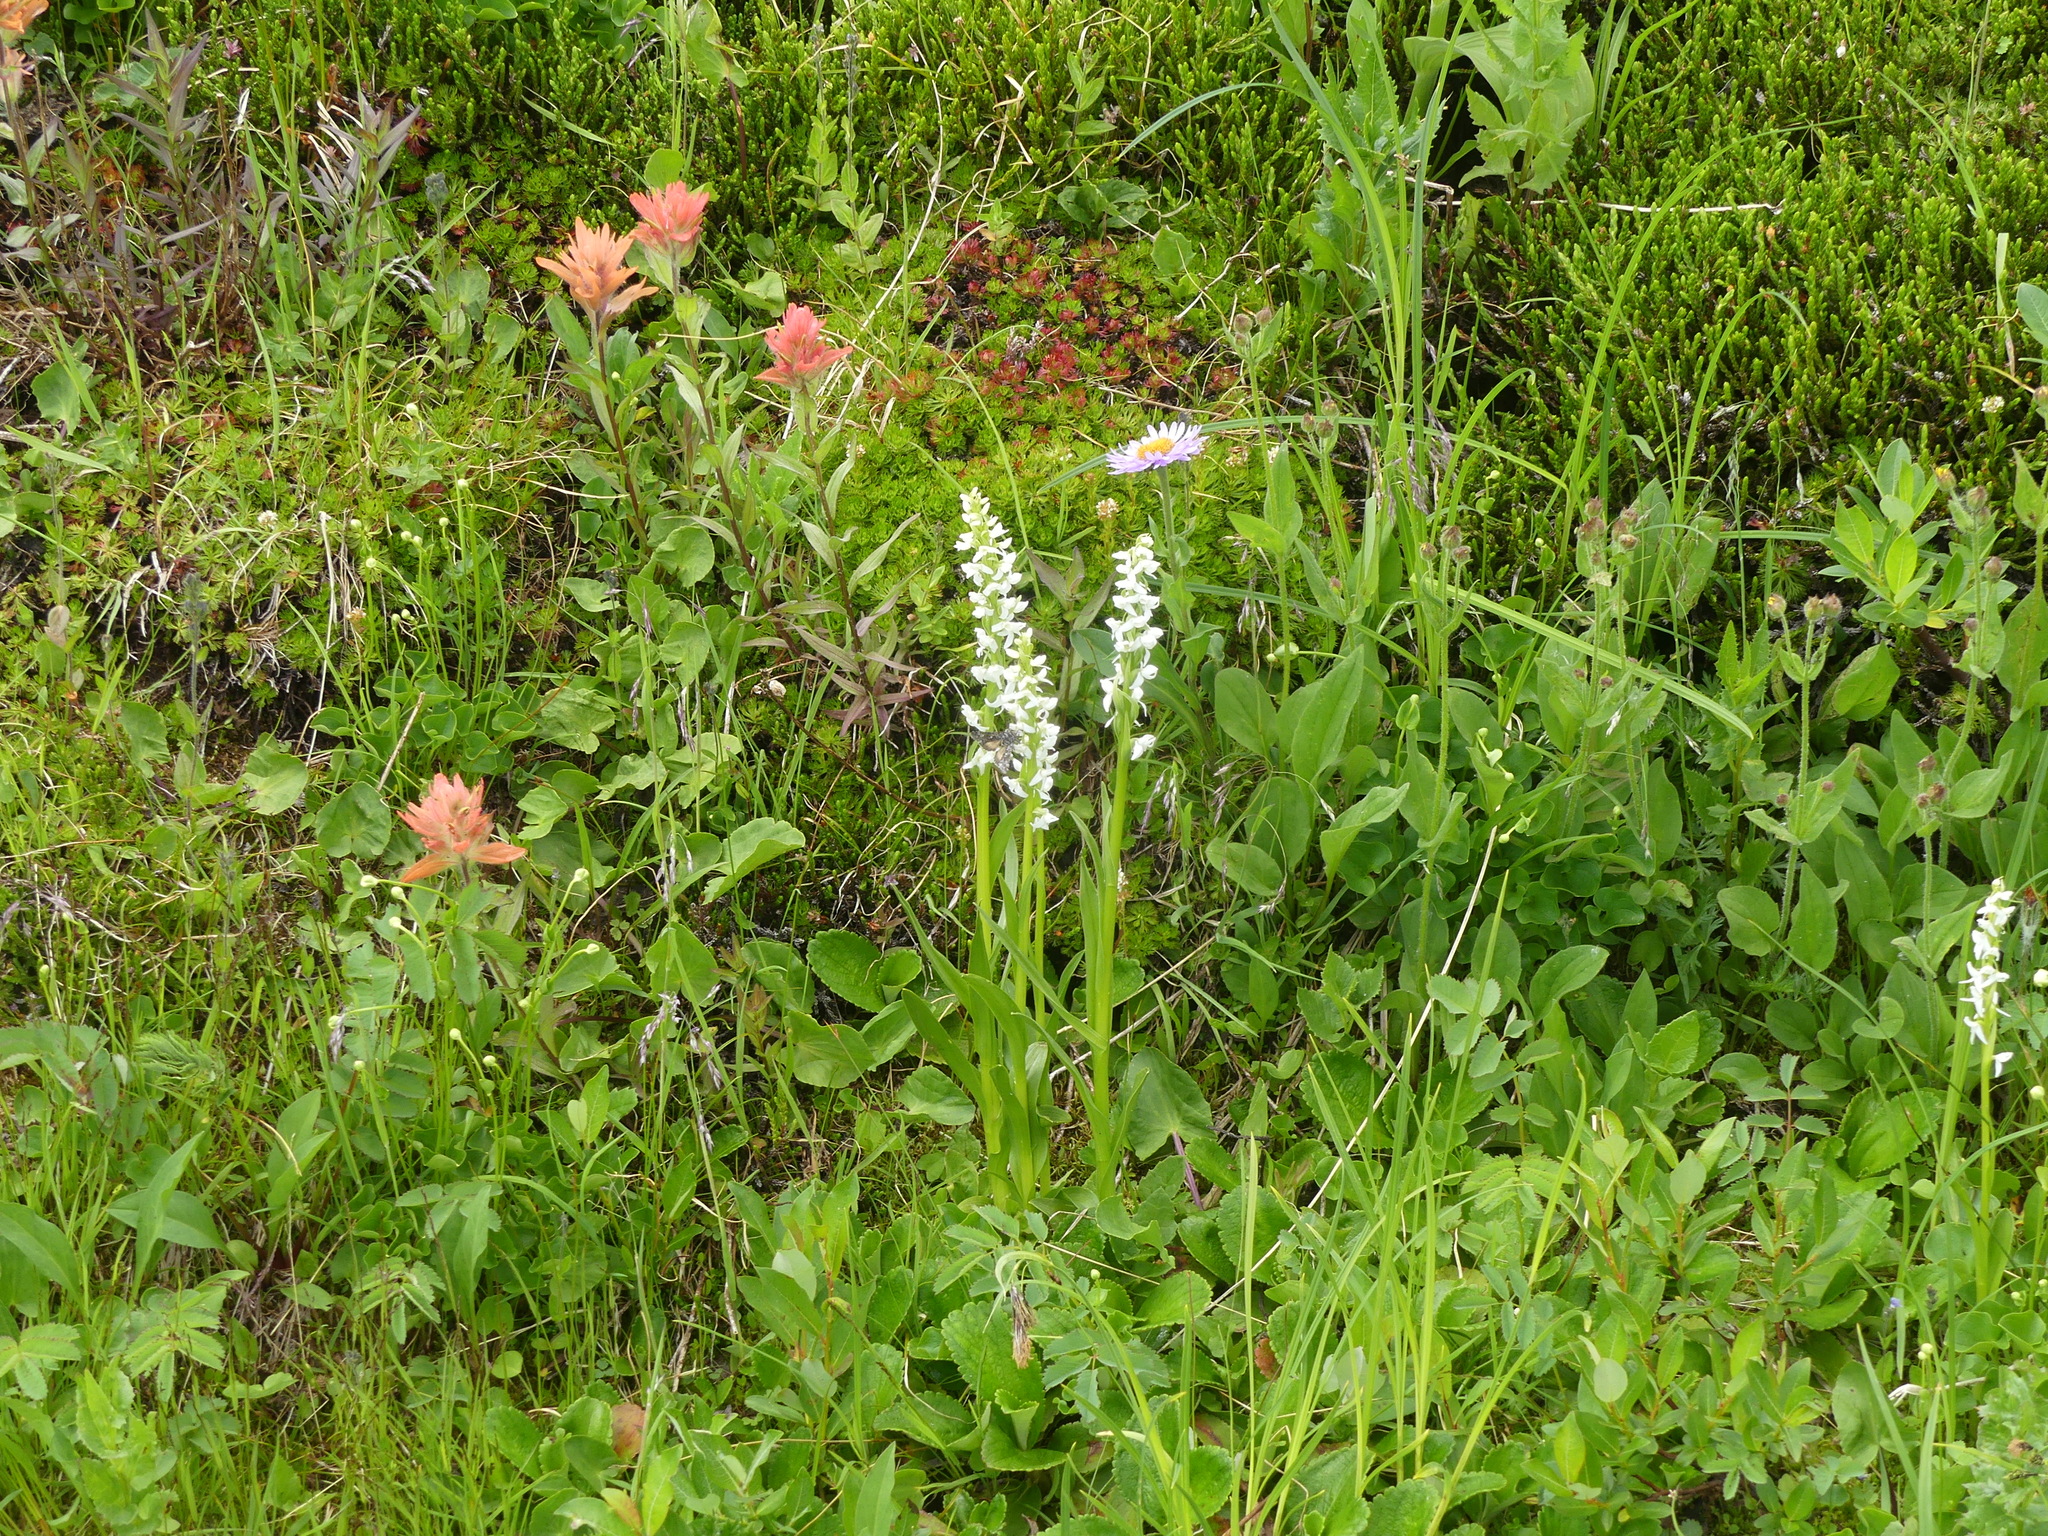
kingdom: Plantae
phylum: Tracheophyta
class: Liliopsida
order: Asparagales
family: Orchidaceae
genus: Platanthera
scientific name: Platanthera dilatata
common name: Bog candles
